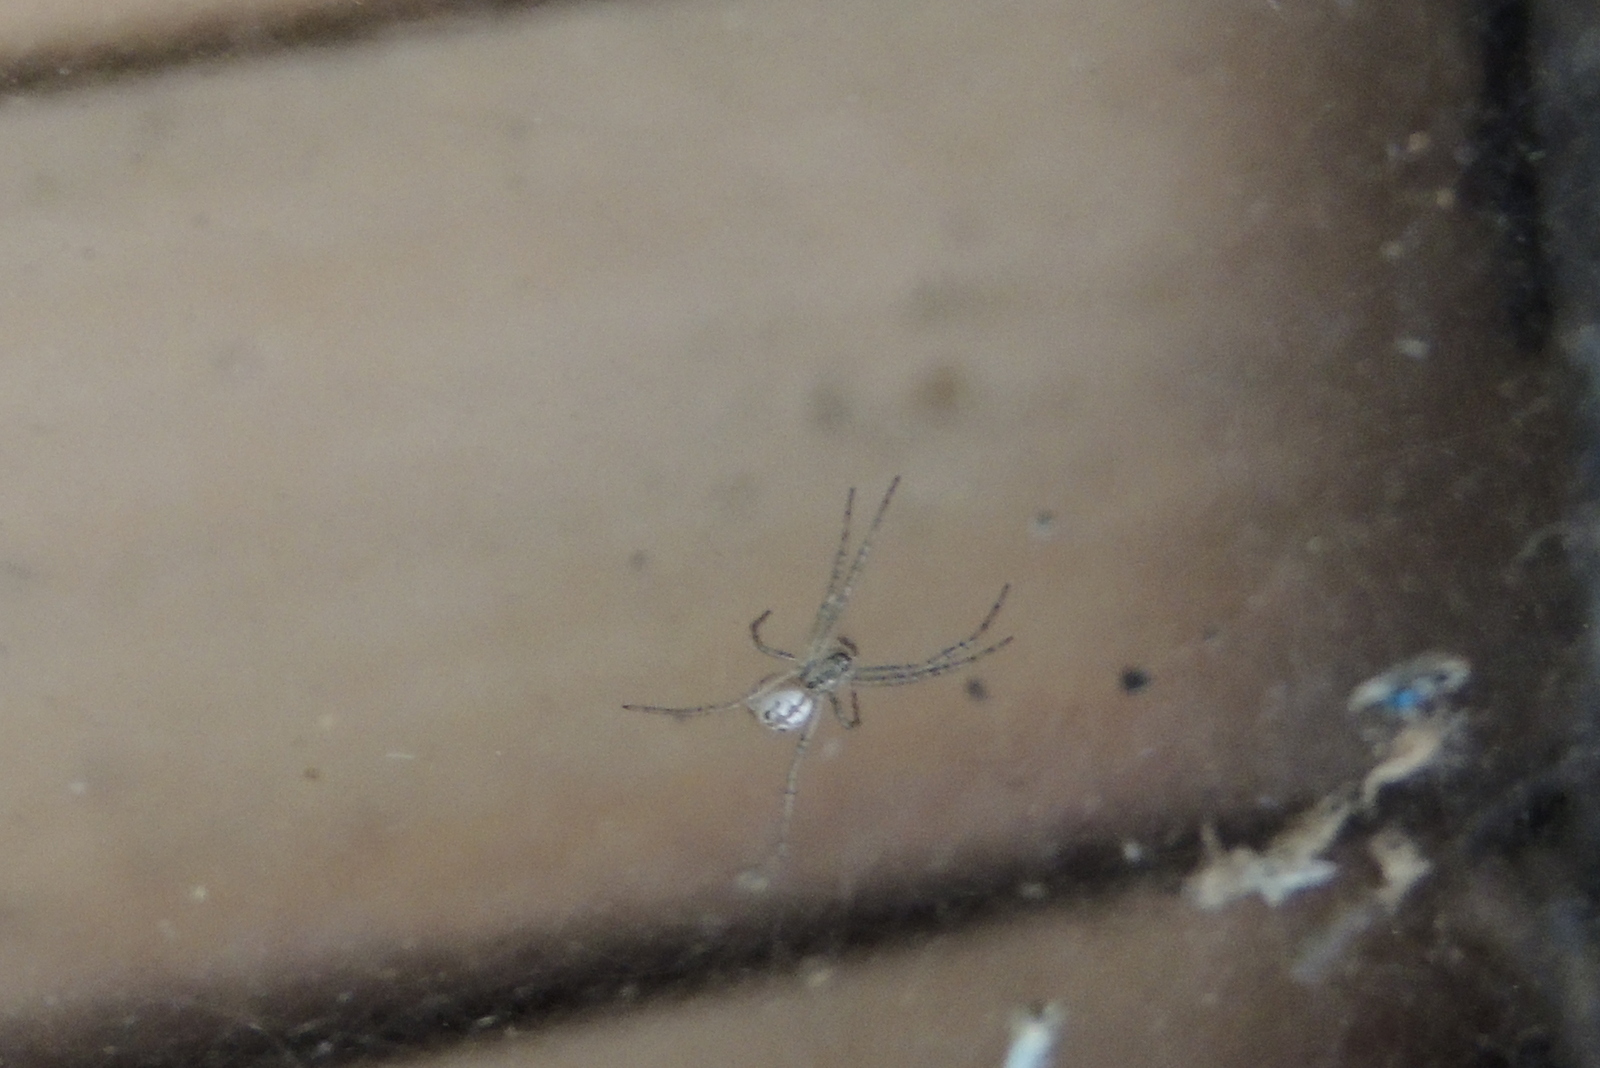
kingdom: Animalia
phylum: Arthropoda
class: Arachnida
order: Araneae
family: Araneidae
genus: Cyrtophora
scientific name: Cyrtophora cicatrosa
